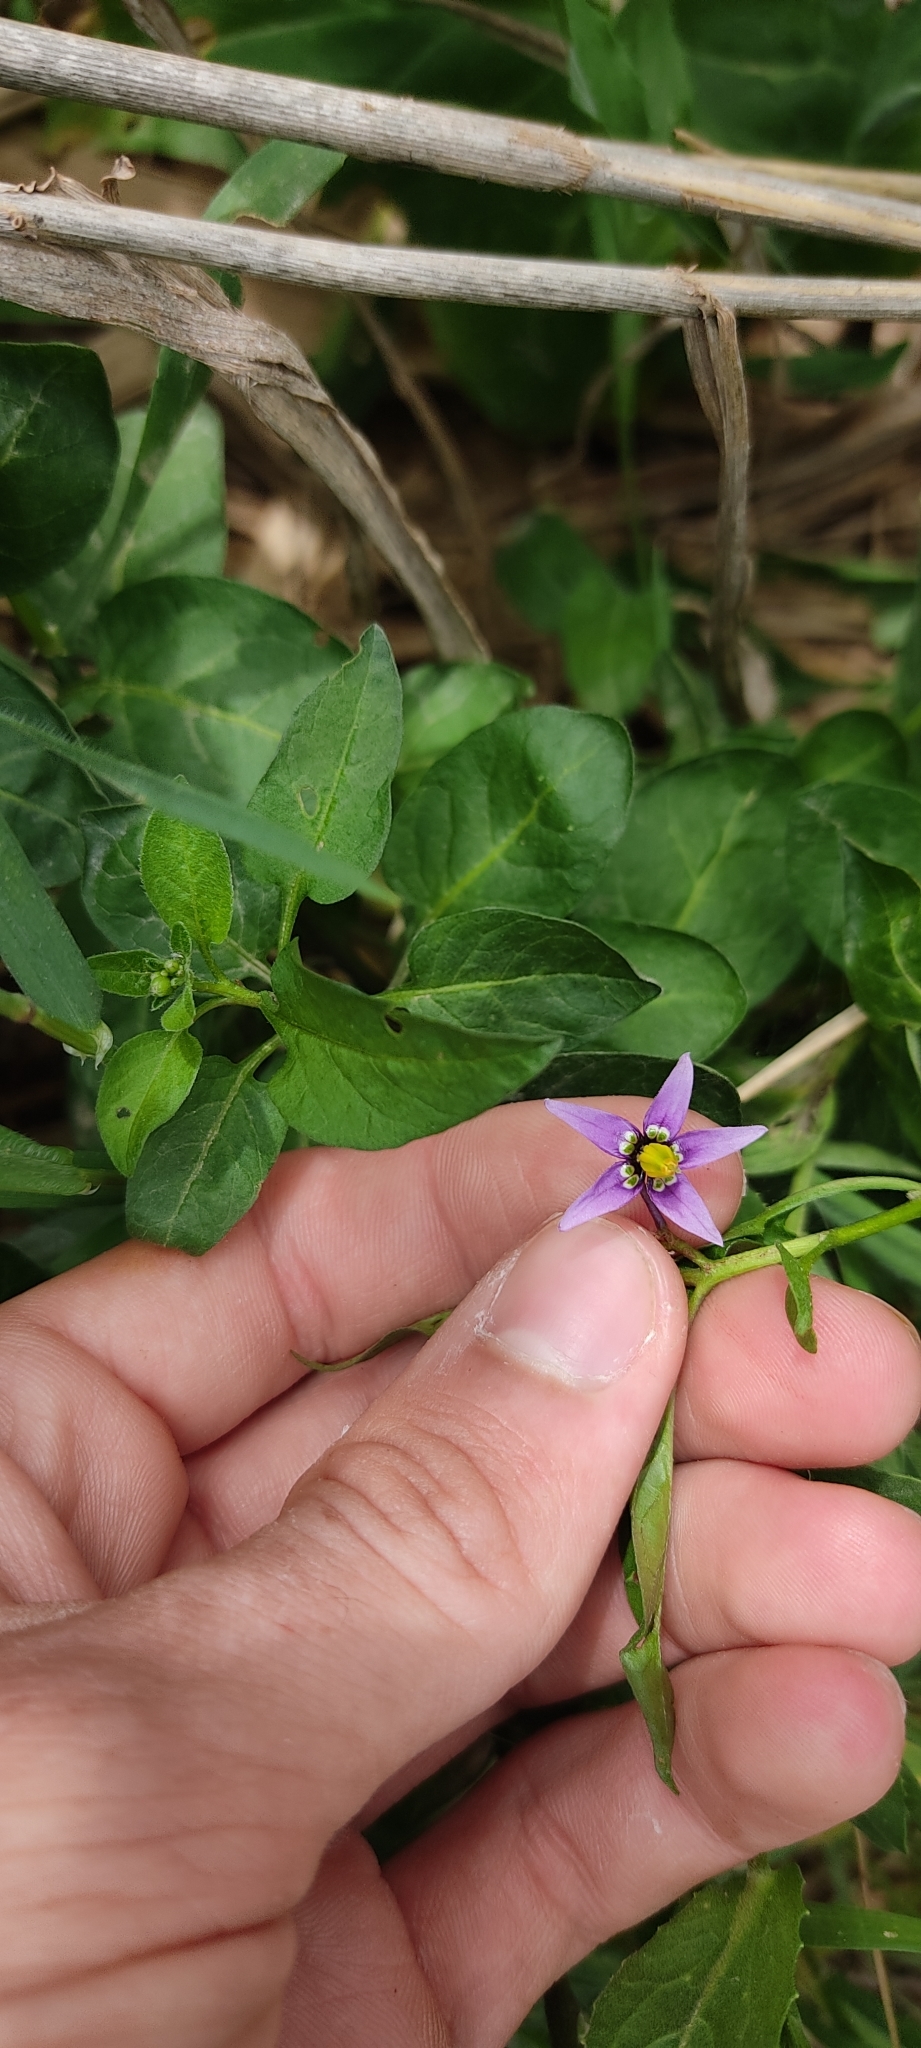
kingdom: Plantae
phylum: Tracheophyta
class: Magnoliopsida
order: Solanales
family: Solanaceae
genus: Solanum
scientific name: Solanum dulcamara
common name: Climbing nightshade
